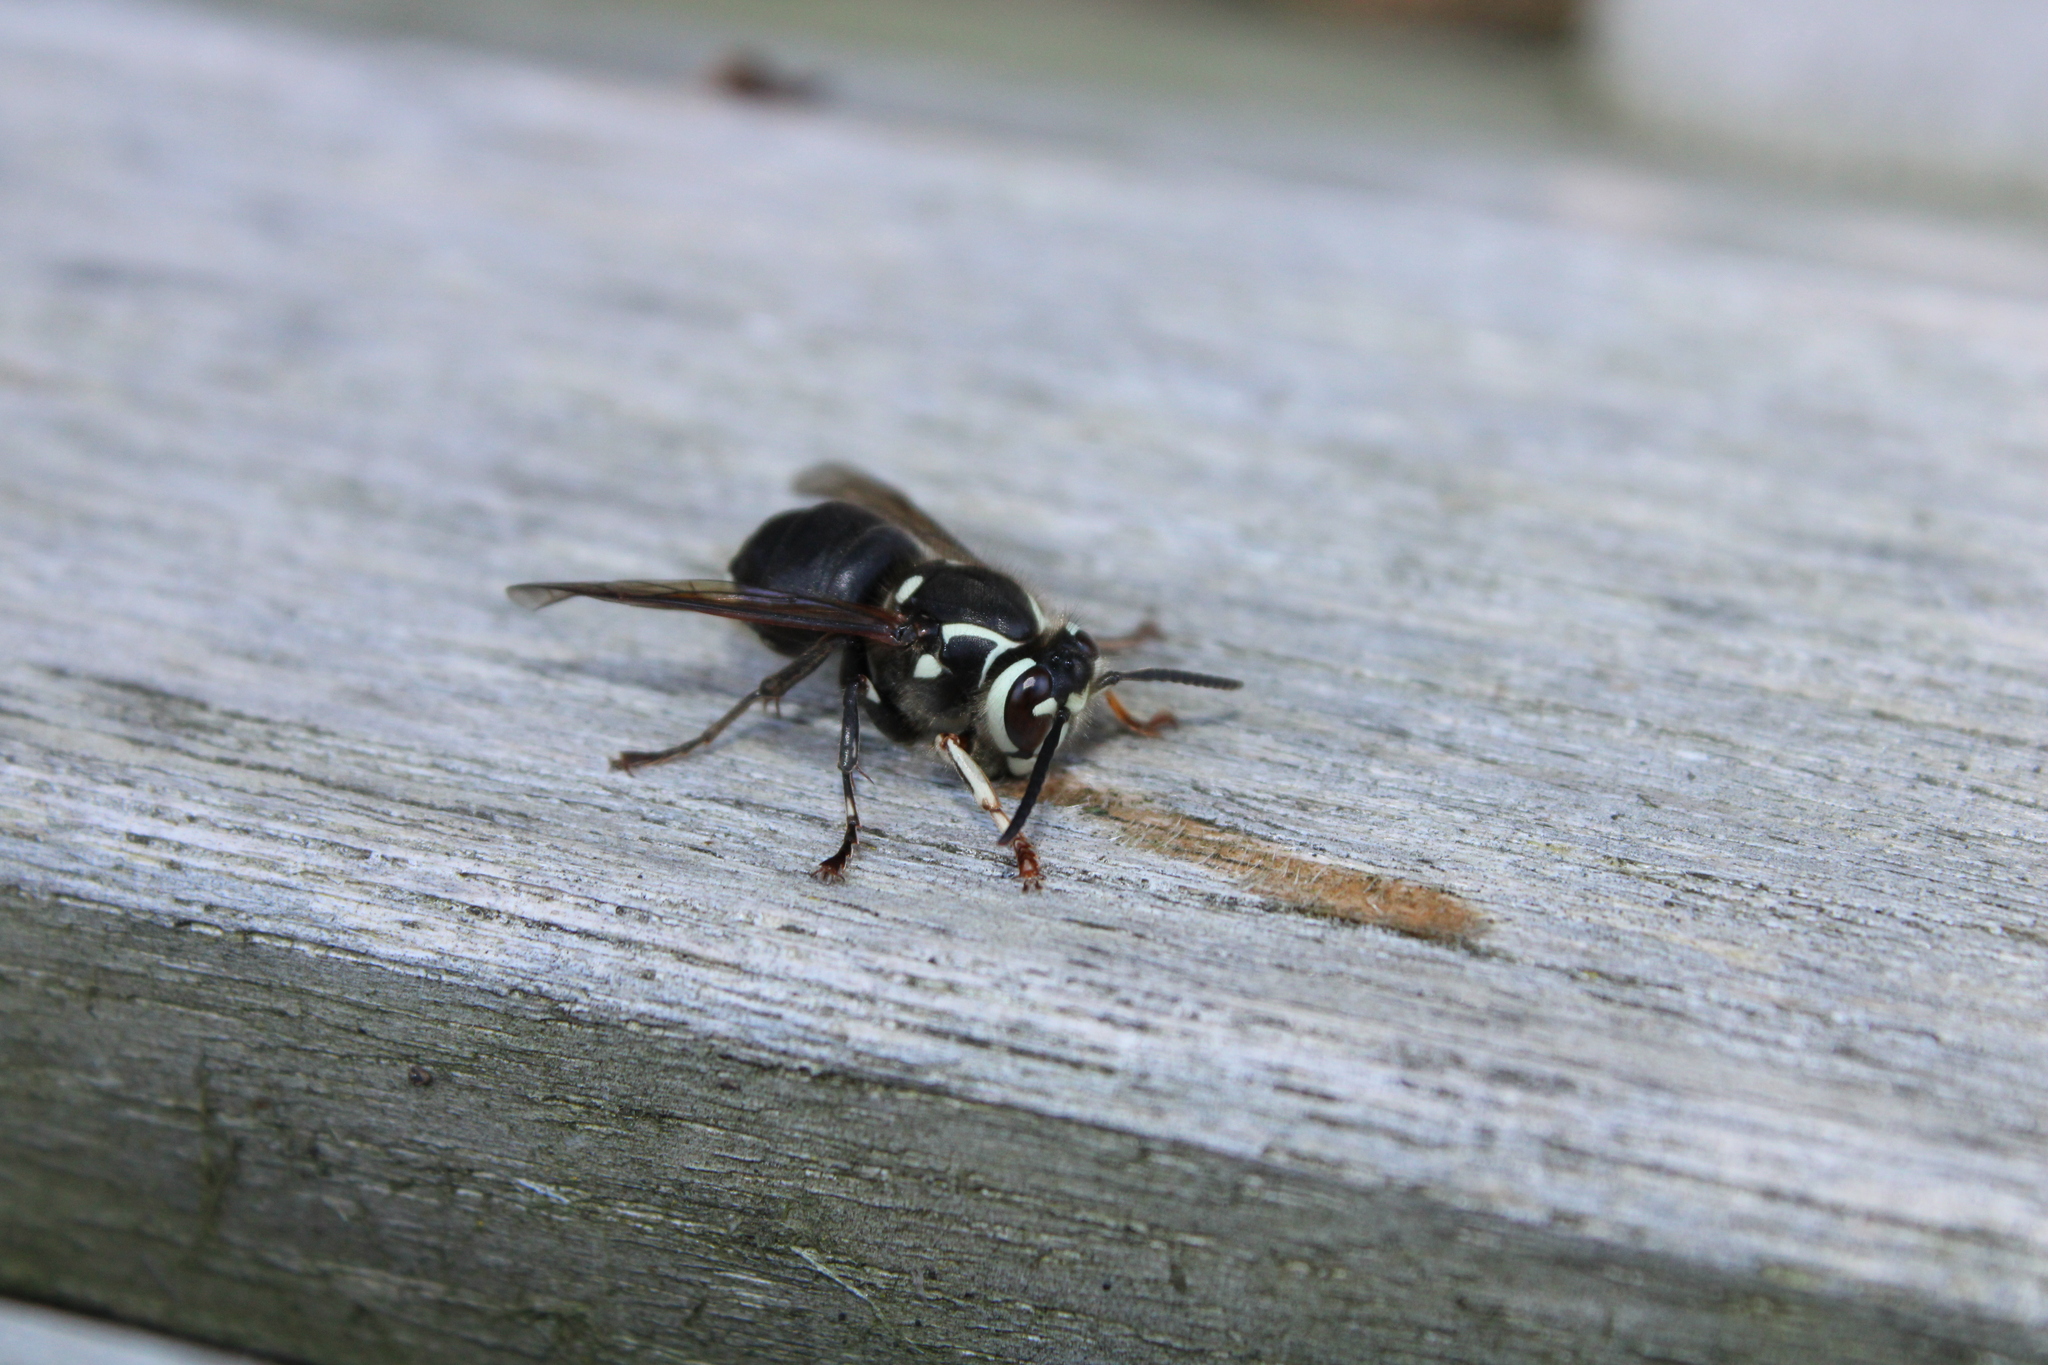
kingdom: Animalia
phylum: Arthropoda
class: Insecta
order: Hymenoptera
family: Vespidae
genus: Dolichovespula
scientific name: Dolichovespula maculata
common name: Bald-faced hornet
